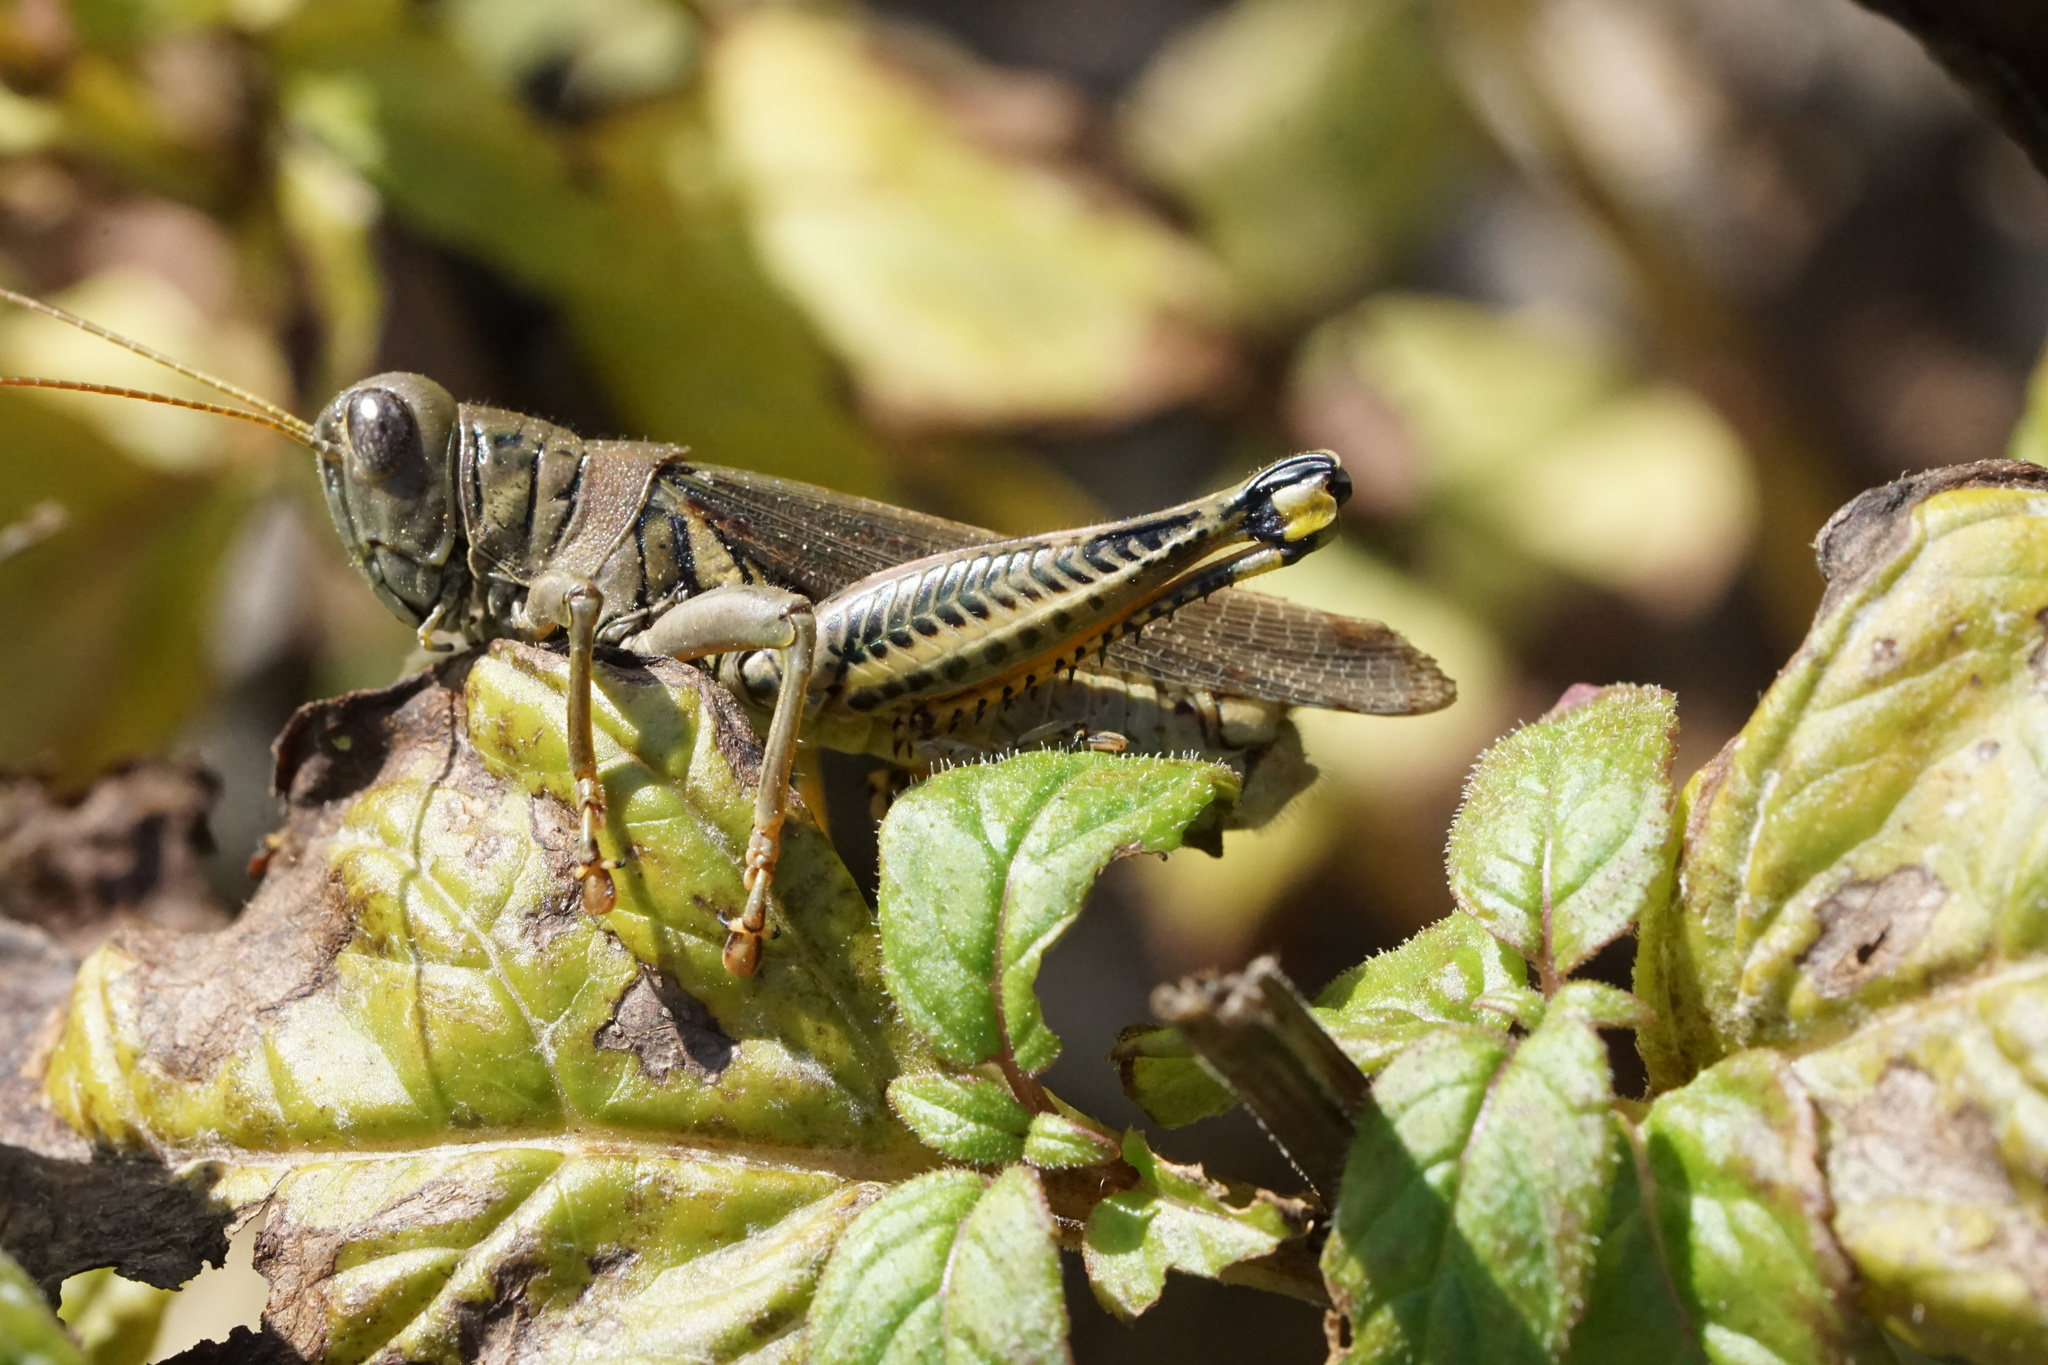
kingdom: Animalia
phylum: Arthropoda
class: Insecta
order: Orthoptera
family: Acrididae
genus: Melanoplus
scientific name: Melanoplus differentialis
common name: Differential grasshopper
